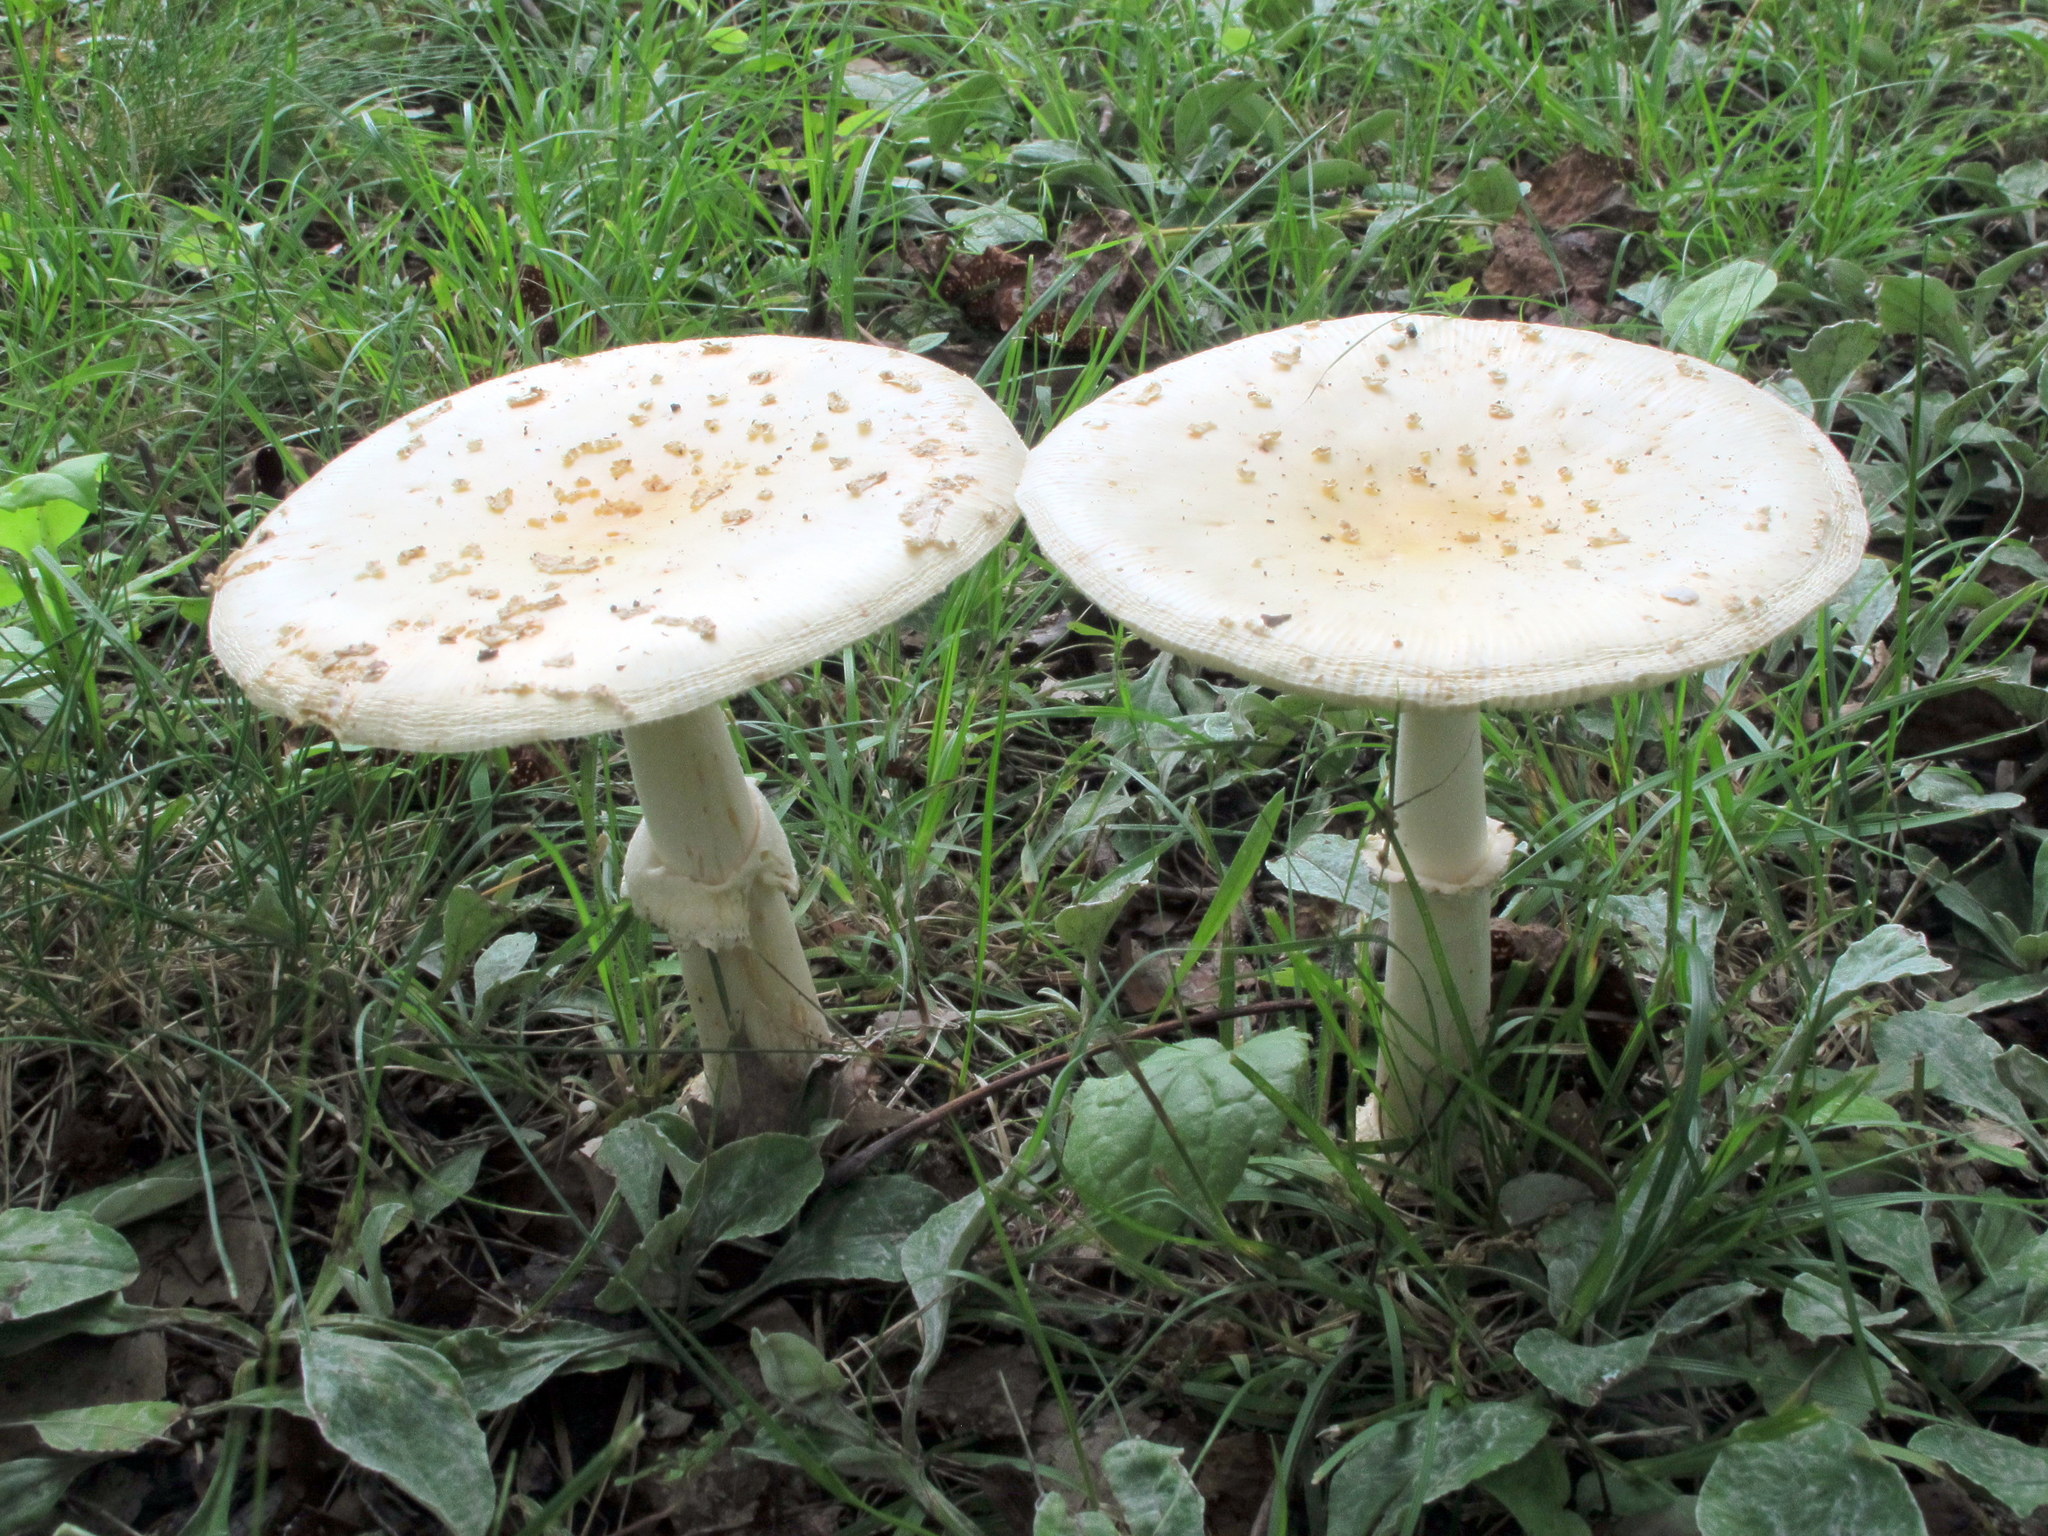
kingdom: Fungi
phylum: Basidiomycota
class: Agaricomycetes
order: Agaricales
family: Amanitaceae
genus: Amanita
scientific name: Amanita velatipes
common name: Great funnel-veil amanita
